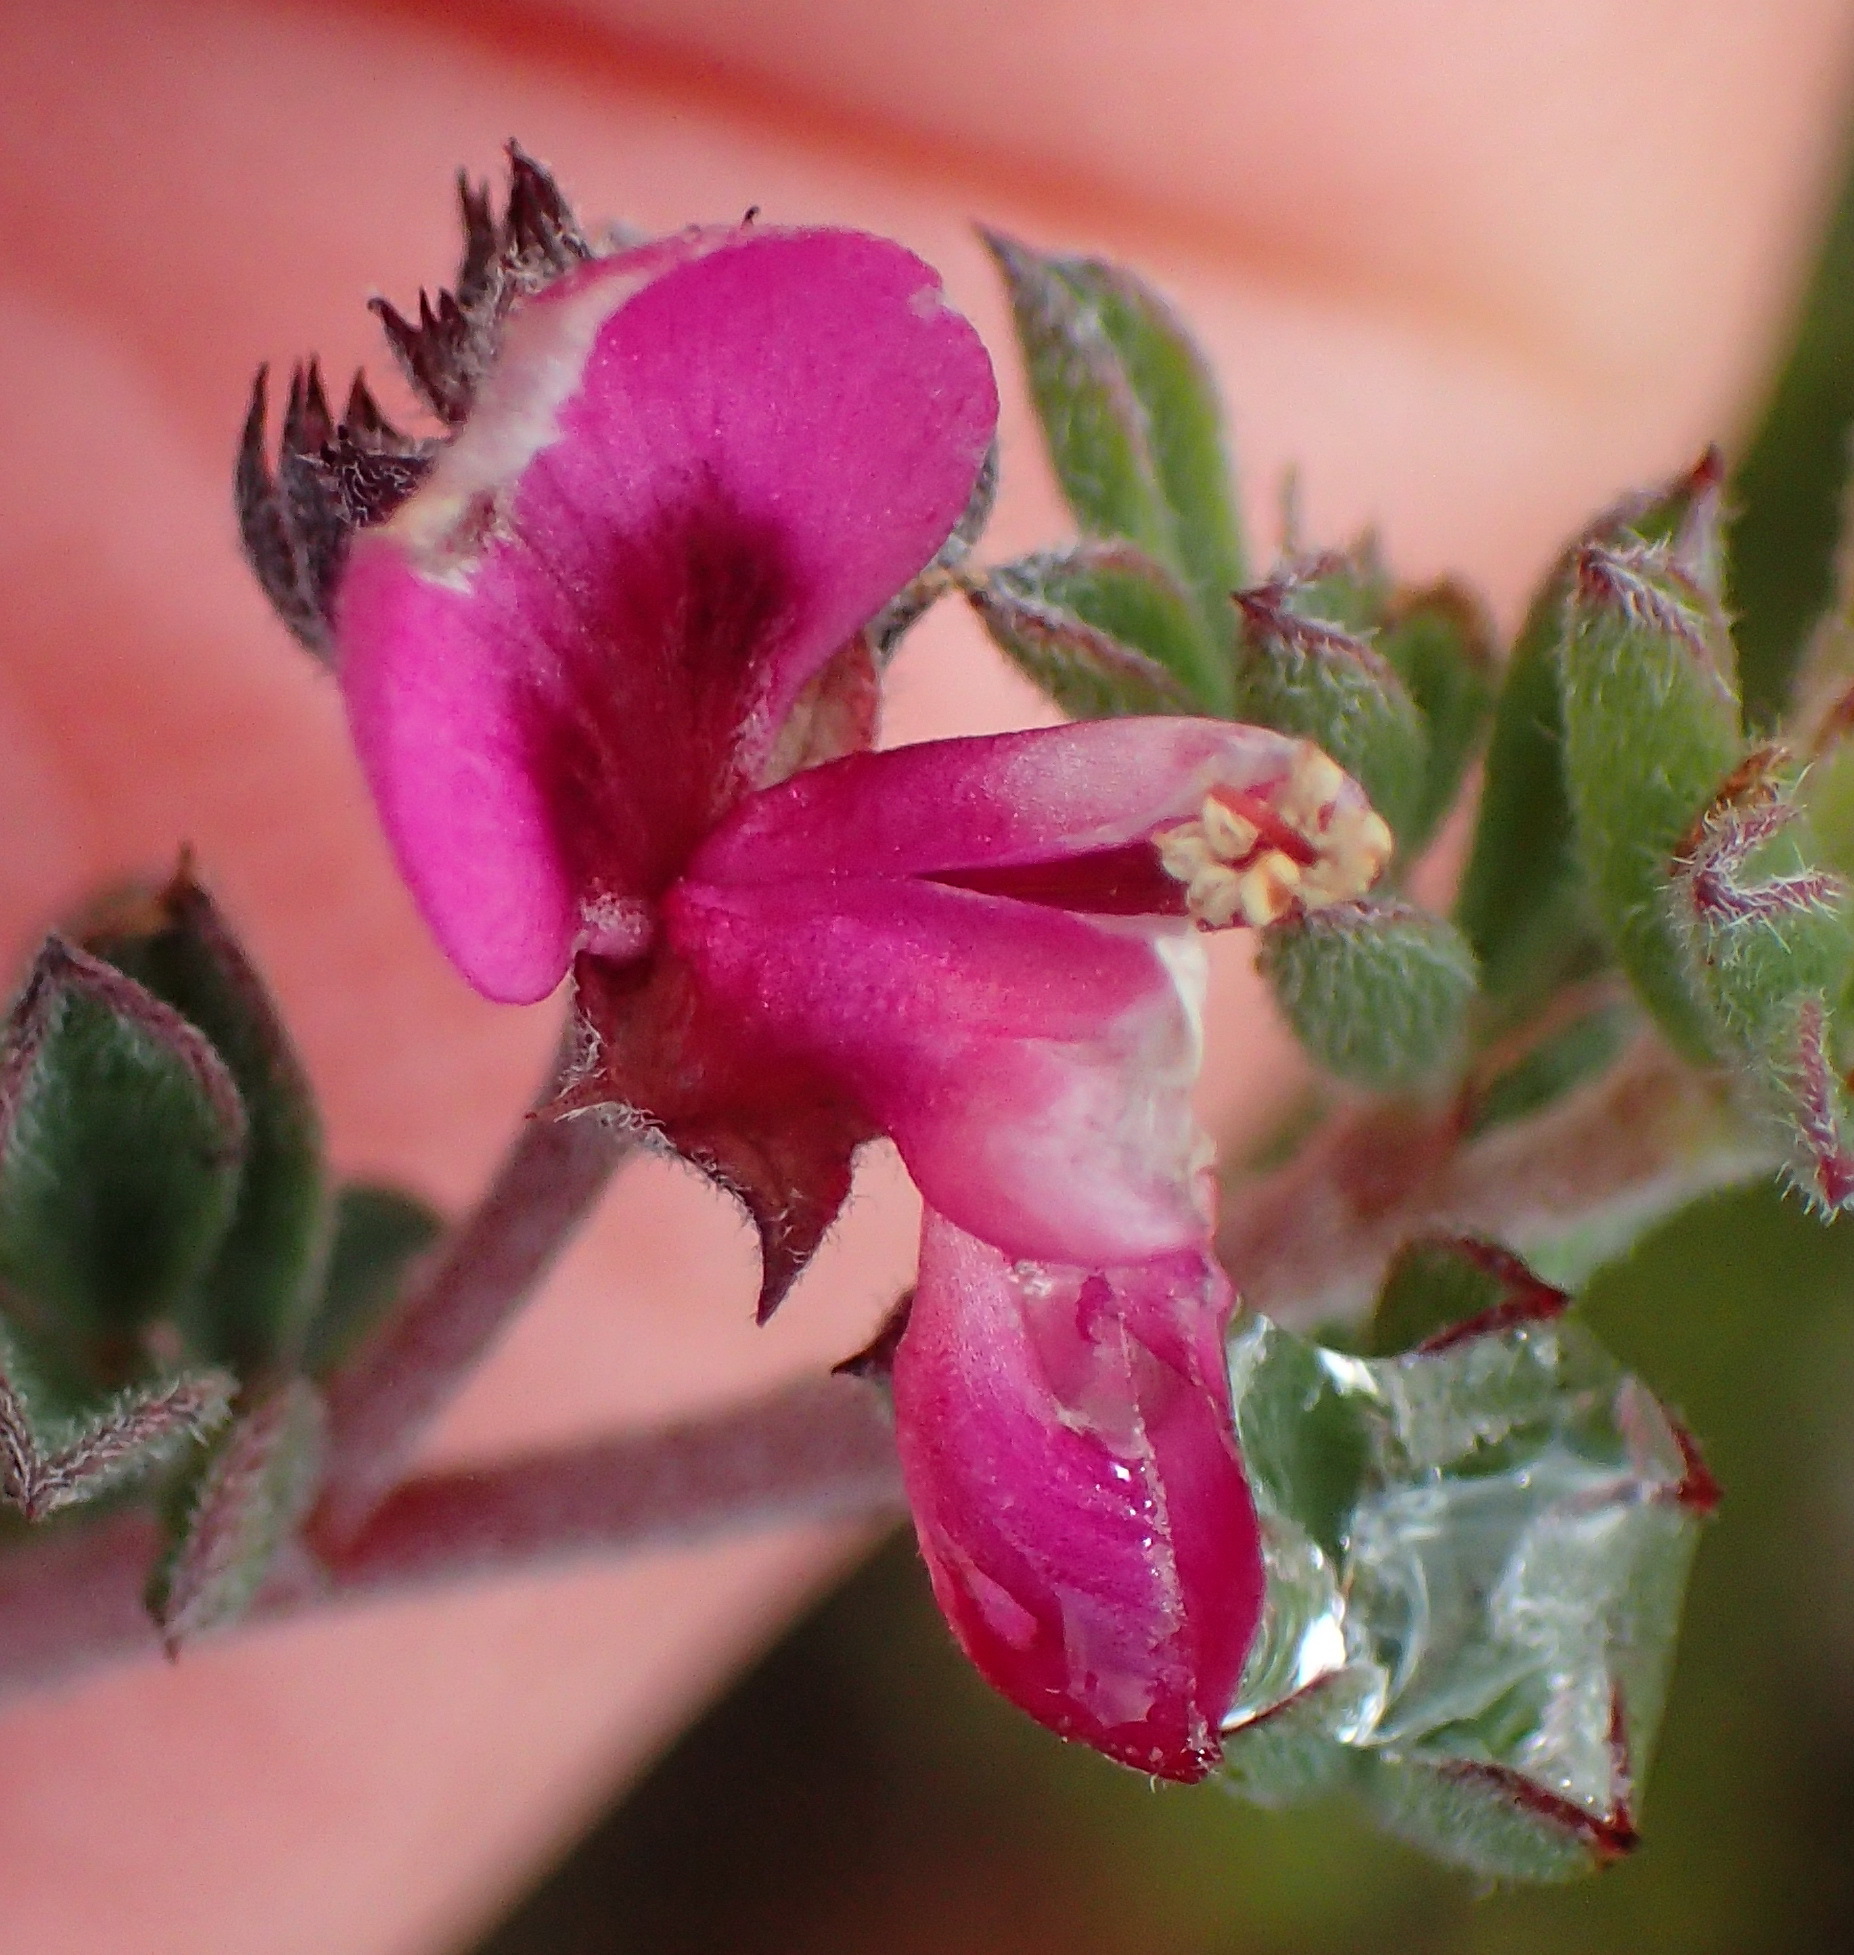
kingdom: Plantae
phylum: Tracheophyta
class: Magnoliopsida
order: Fabales
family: Fabaceae
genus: Indigofera
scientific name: Indigofera
